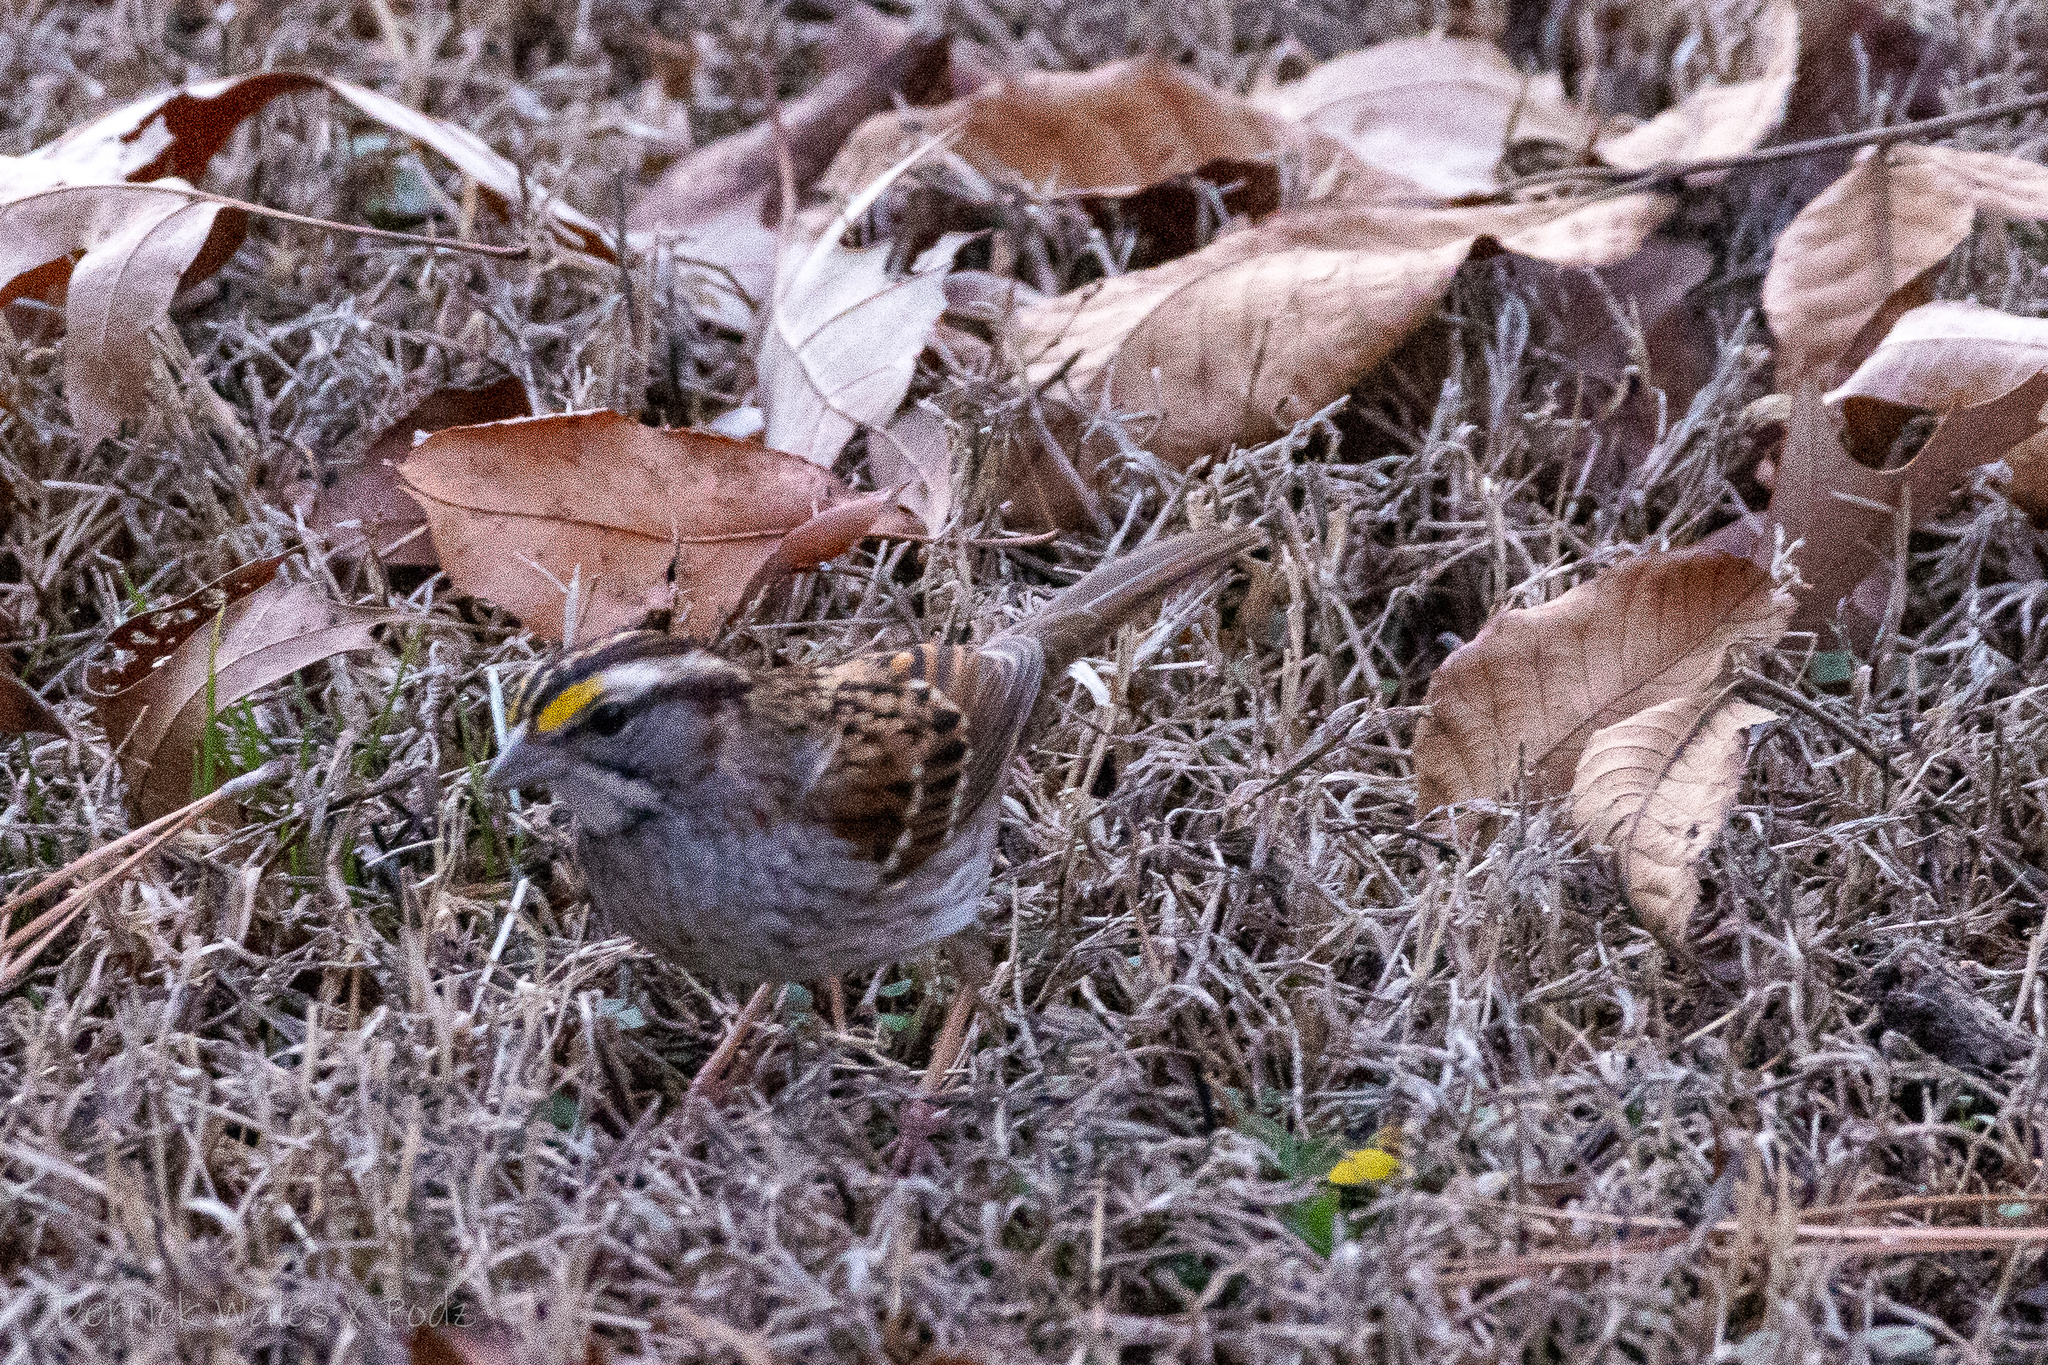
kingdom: Animalia
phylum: Chordata
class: Aves
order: Passeriformes
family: Passerellidae
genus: Zonotrichia
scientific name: Zonotrichia albicollis
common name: White-throated sparrow
